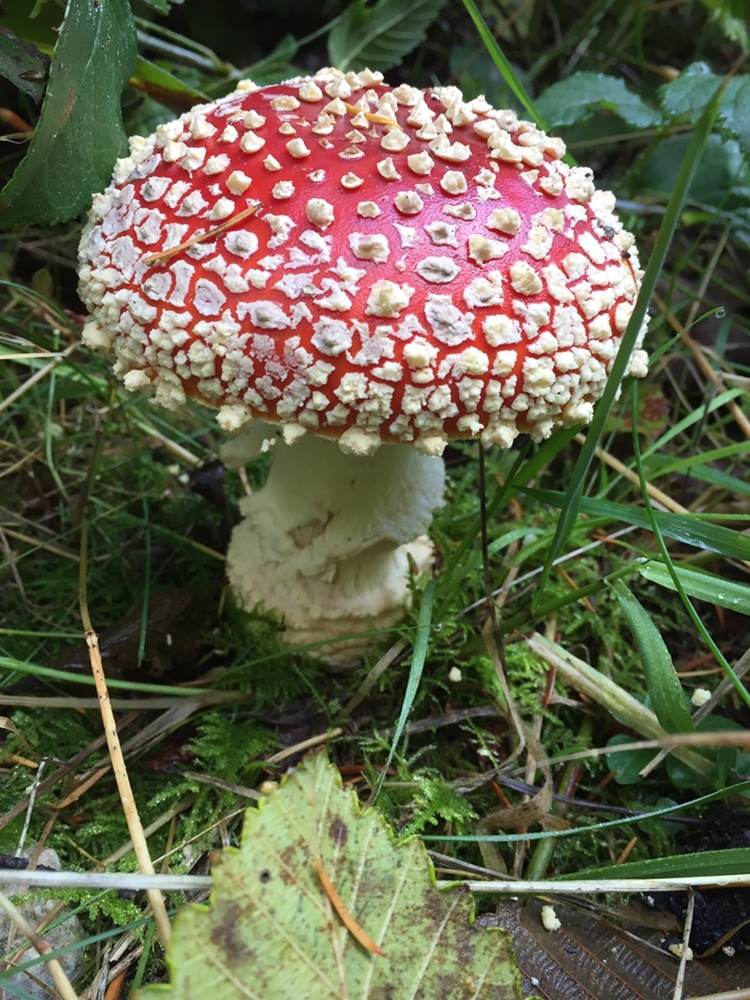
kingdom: Fungi
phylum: Basidiomycota
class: Agaricomycetes
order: Agaricales
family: Amanitaceae
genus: Amanita
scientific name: Amanita muscaria
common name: Fly agaric
